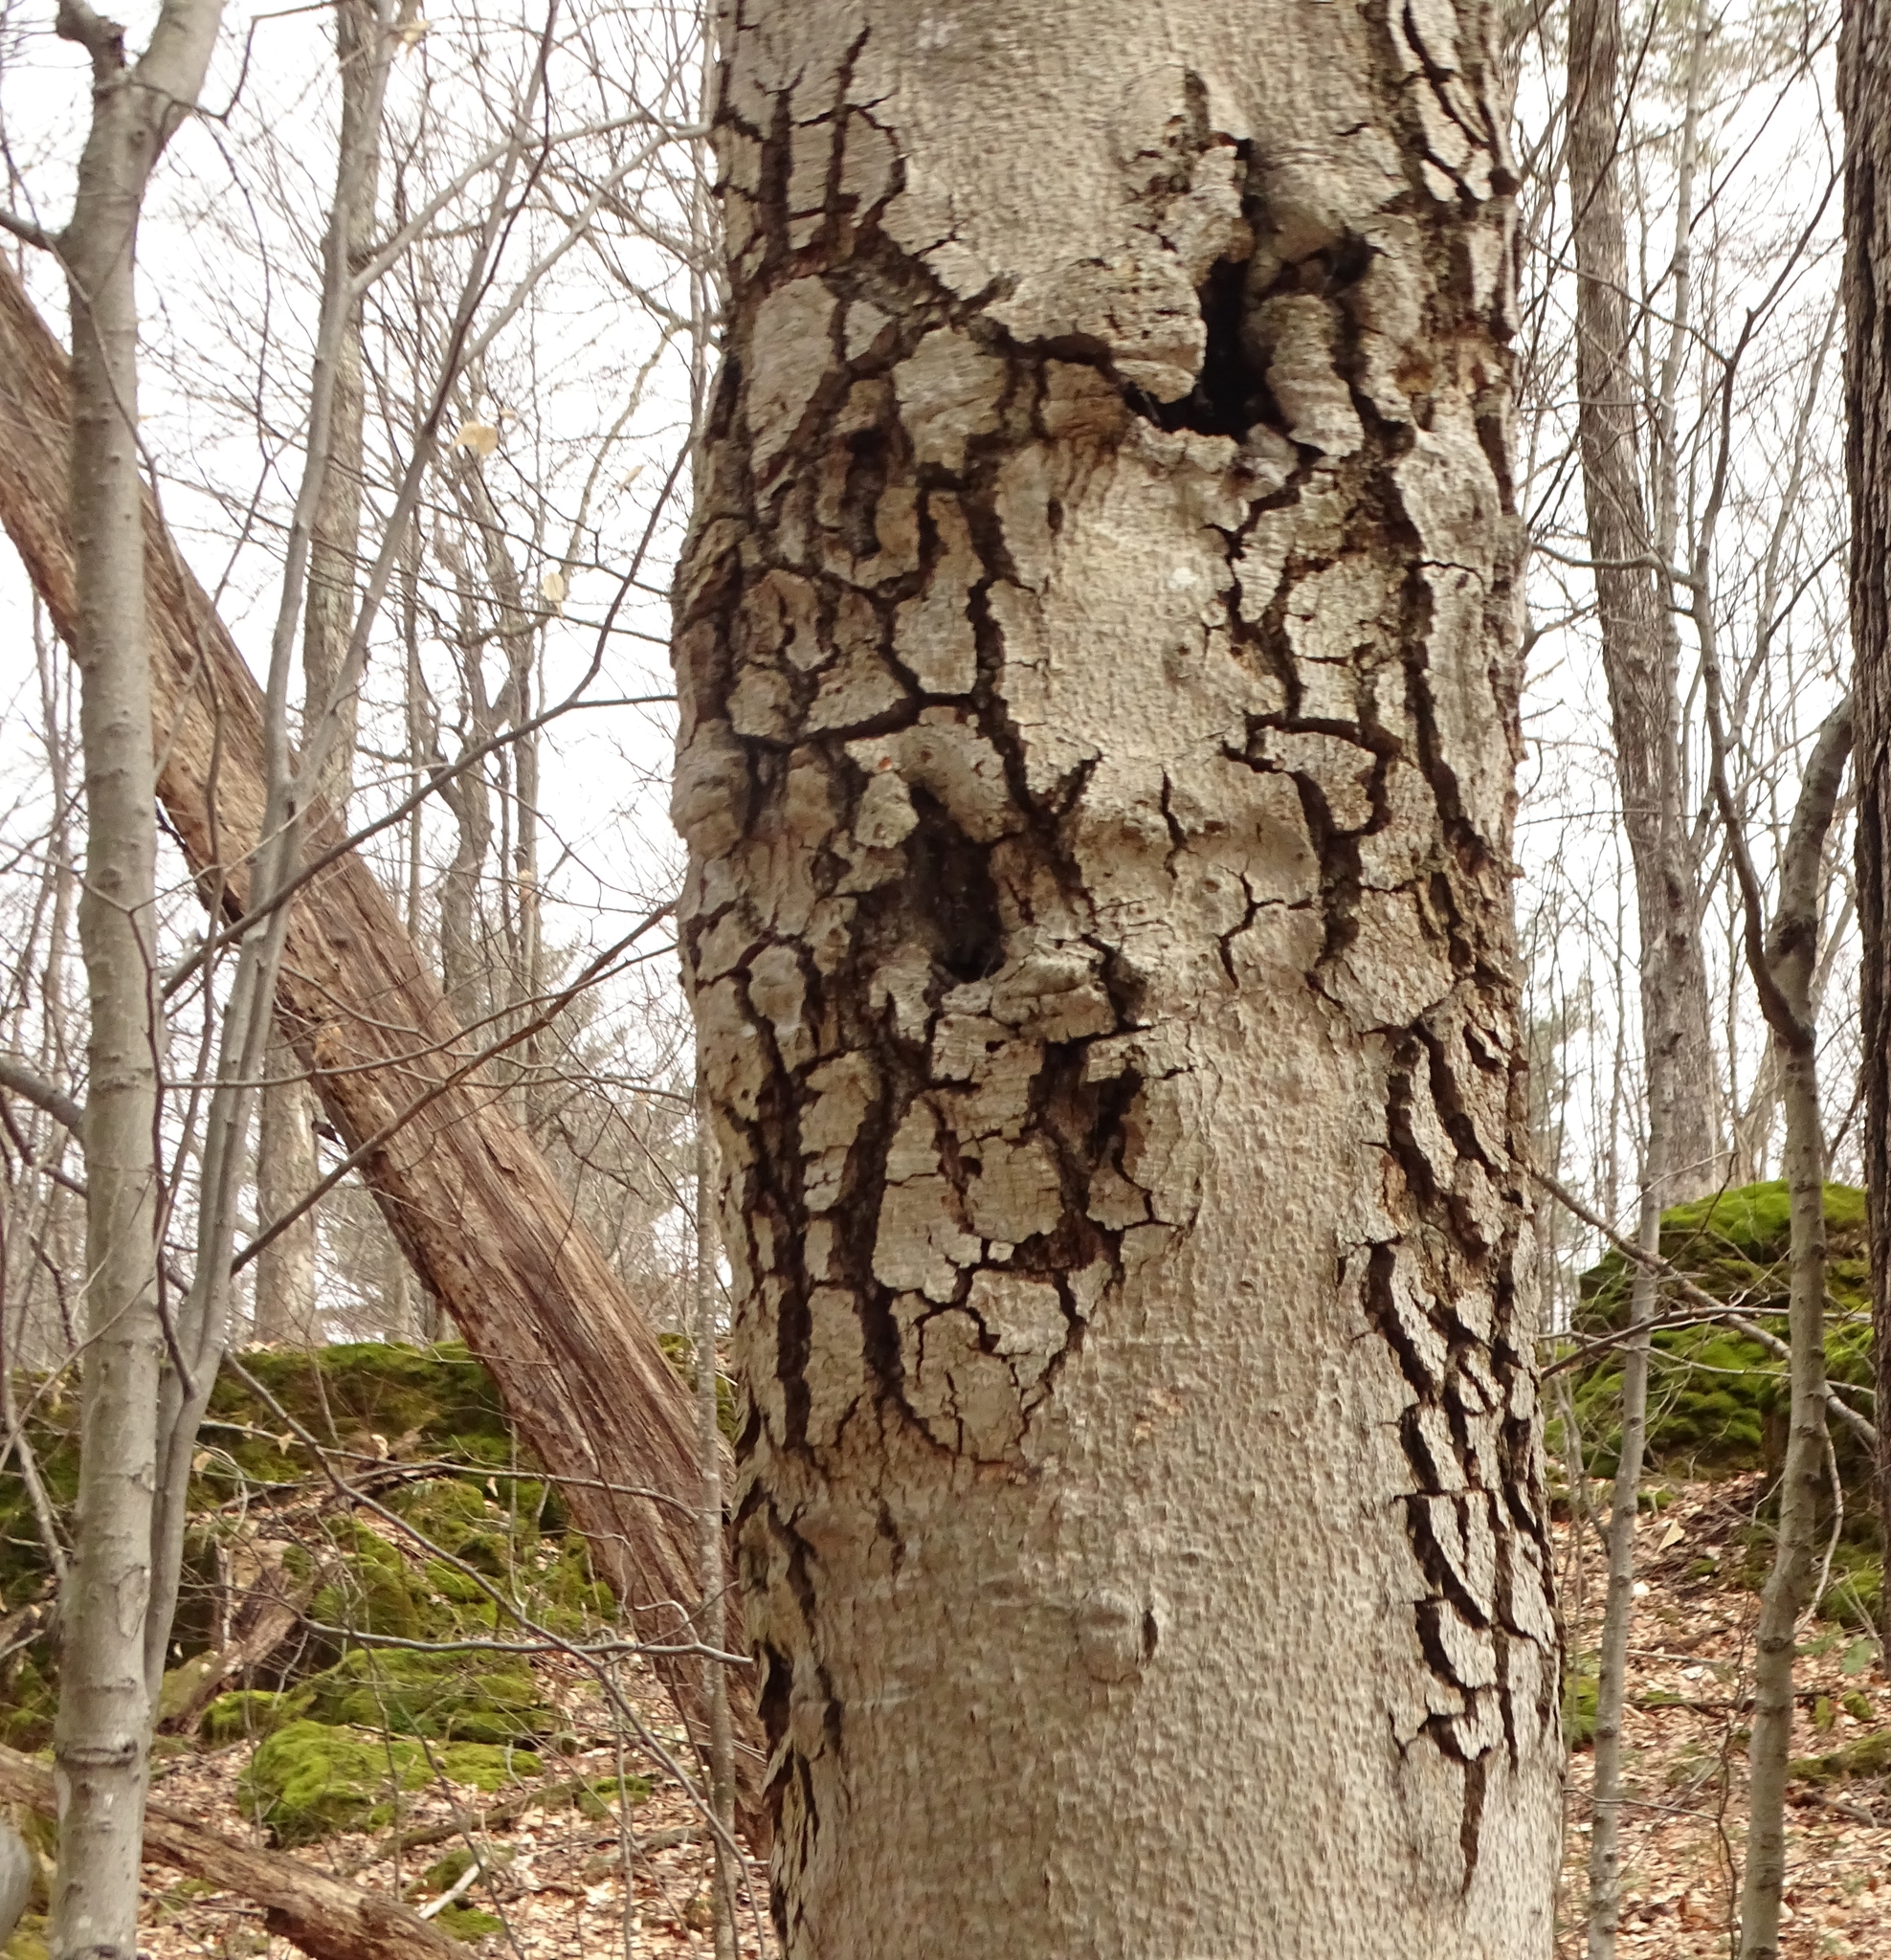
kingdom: Fungi
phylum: Ascomycota
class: Sordariomycetes
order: Hypocreales
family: Nectriaceae
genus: Neonectria
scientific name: Neonectria faginata
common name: Beech bark canker
